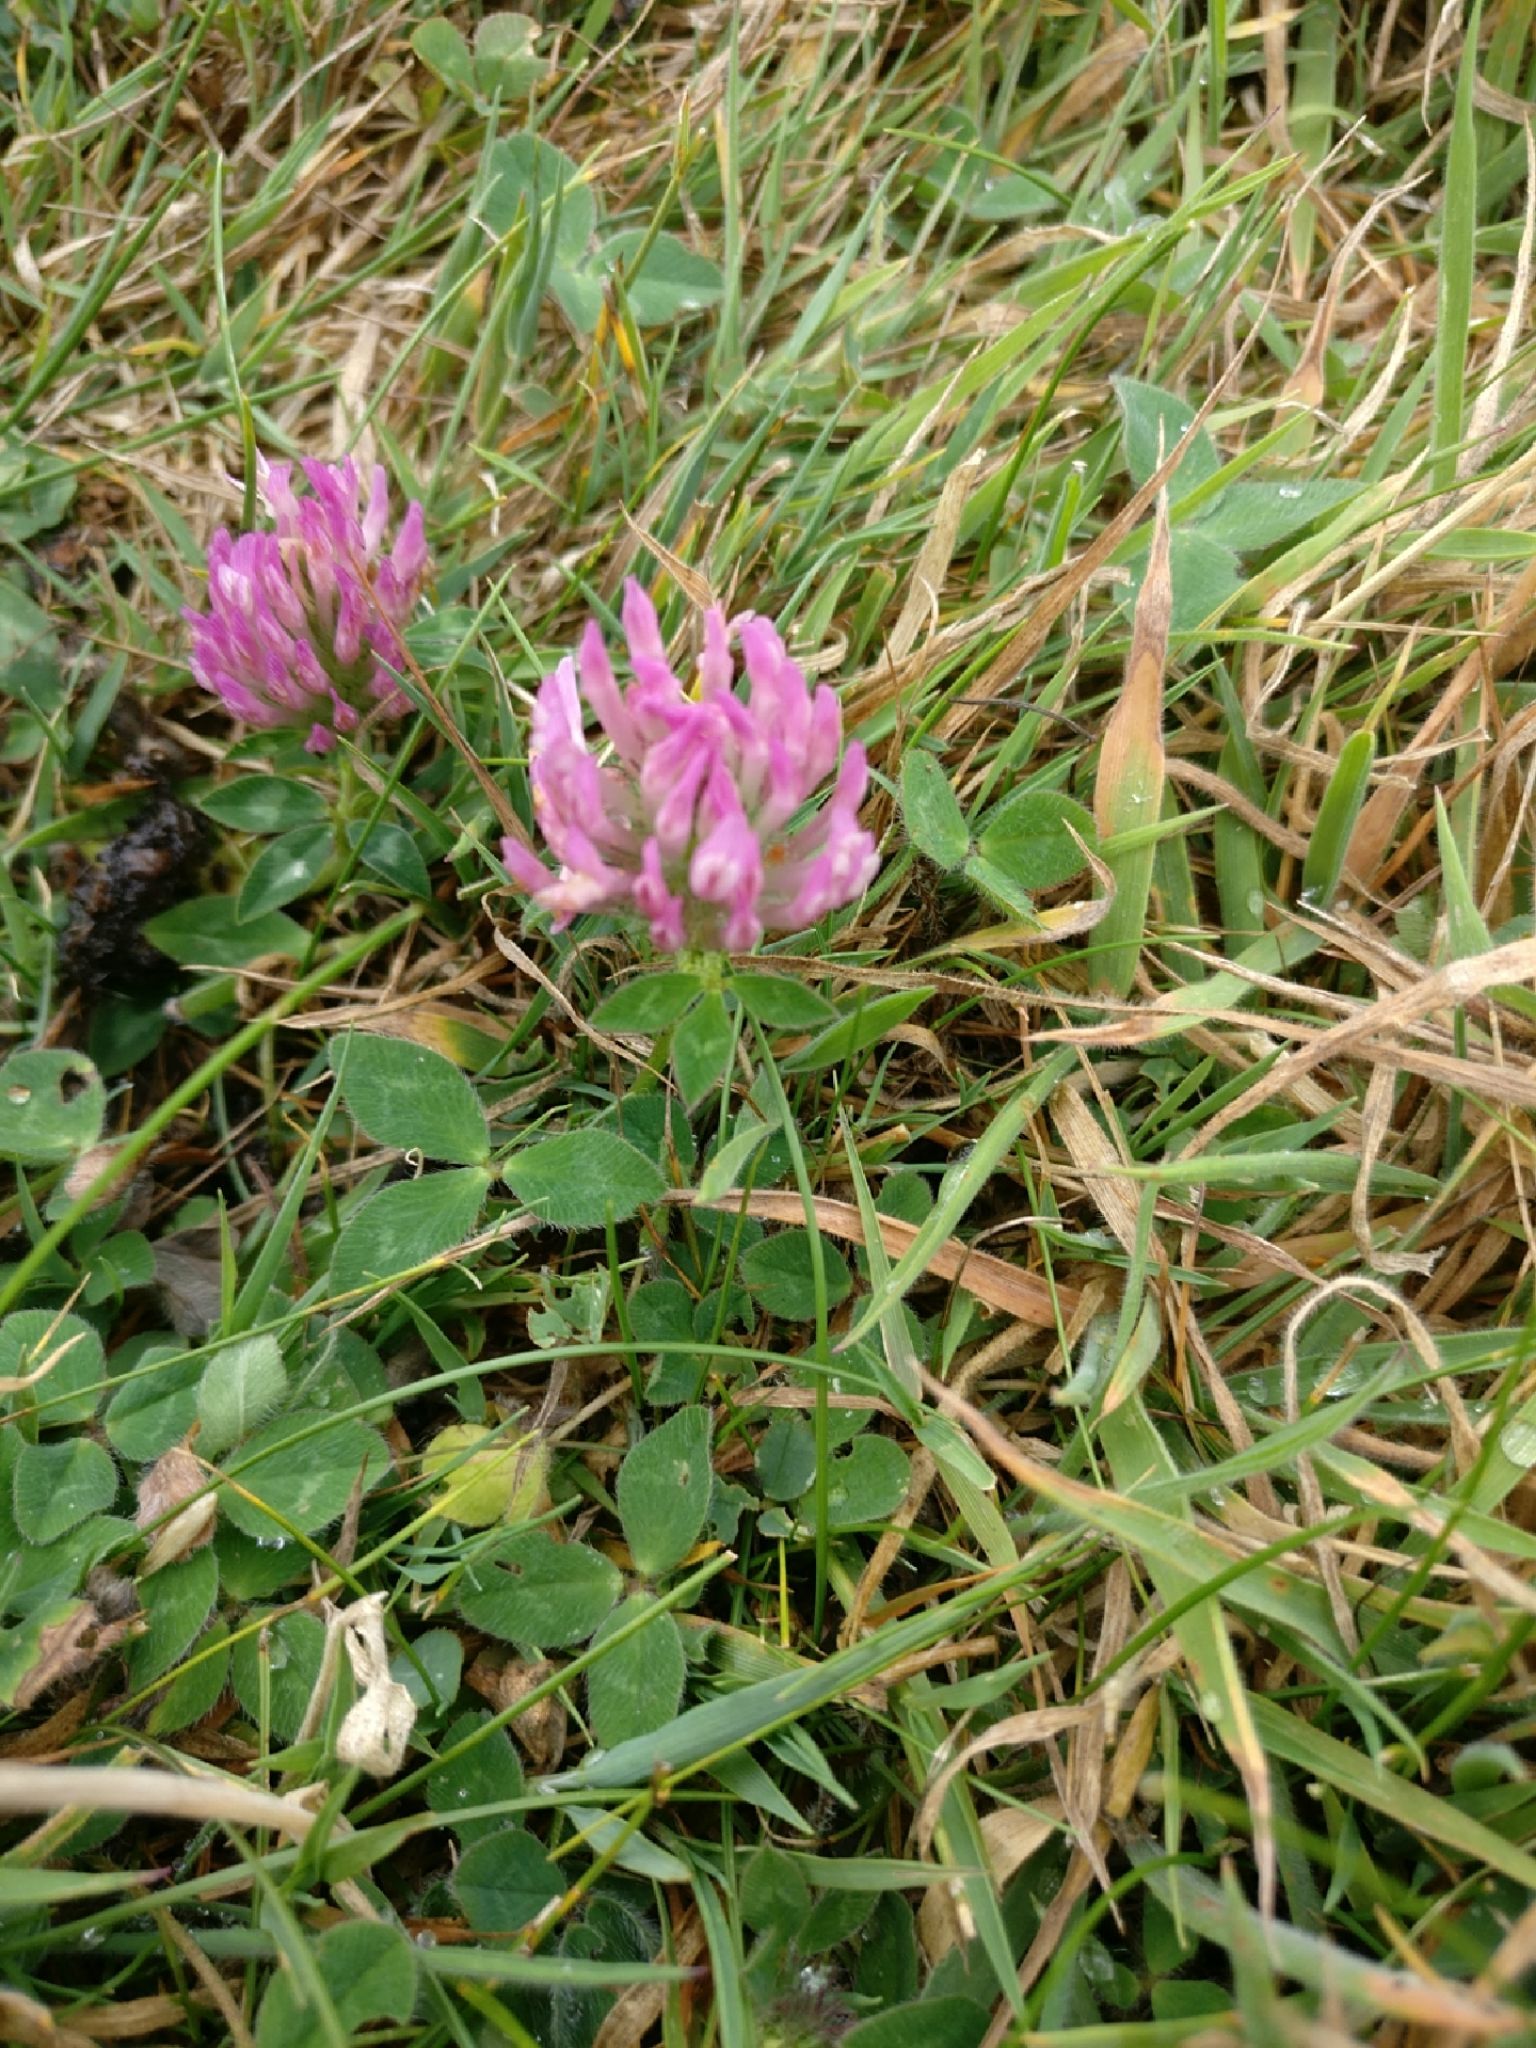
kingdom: Plantae
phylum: Tracheophyta
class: Magnoliopsida
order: Fabales
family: Fabaceae
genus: Trifolium
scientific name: Trifolium pratense
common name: Red clover
